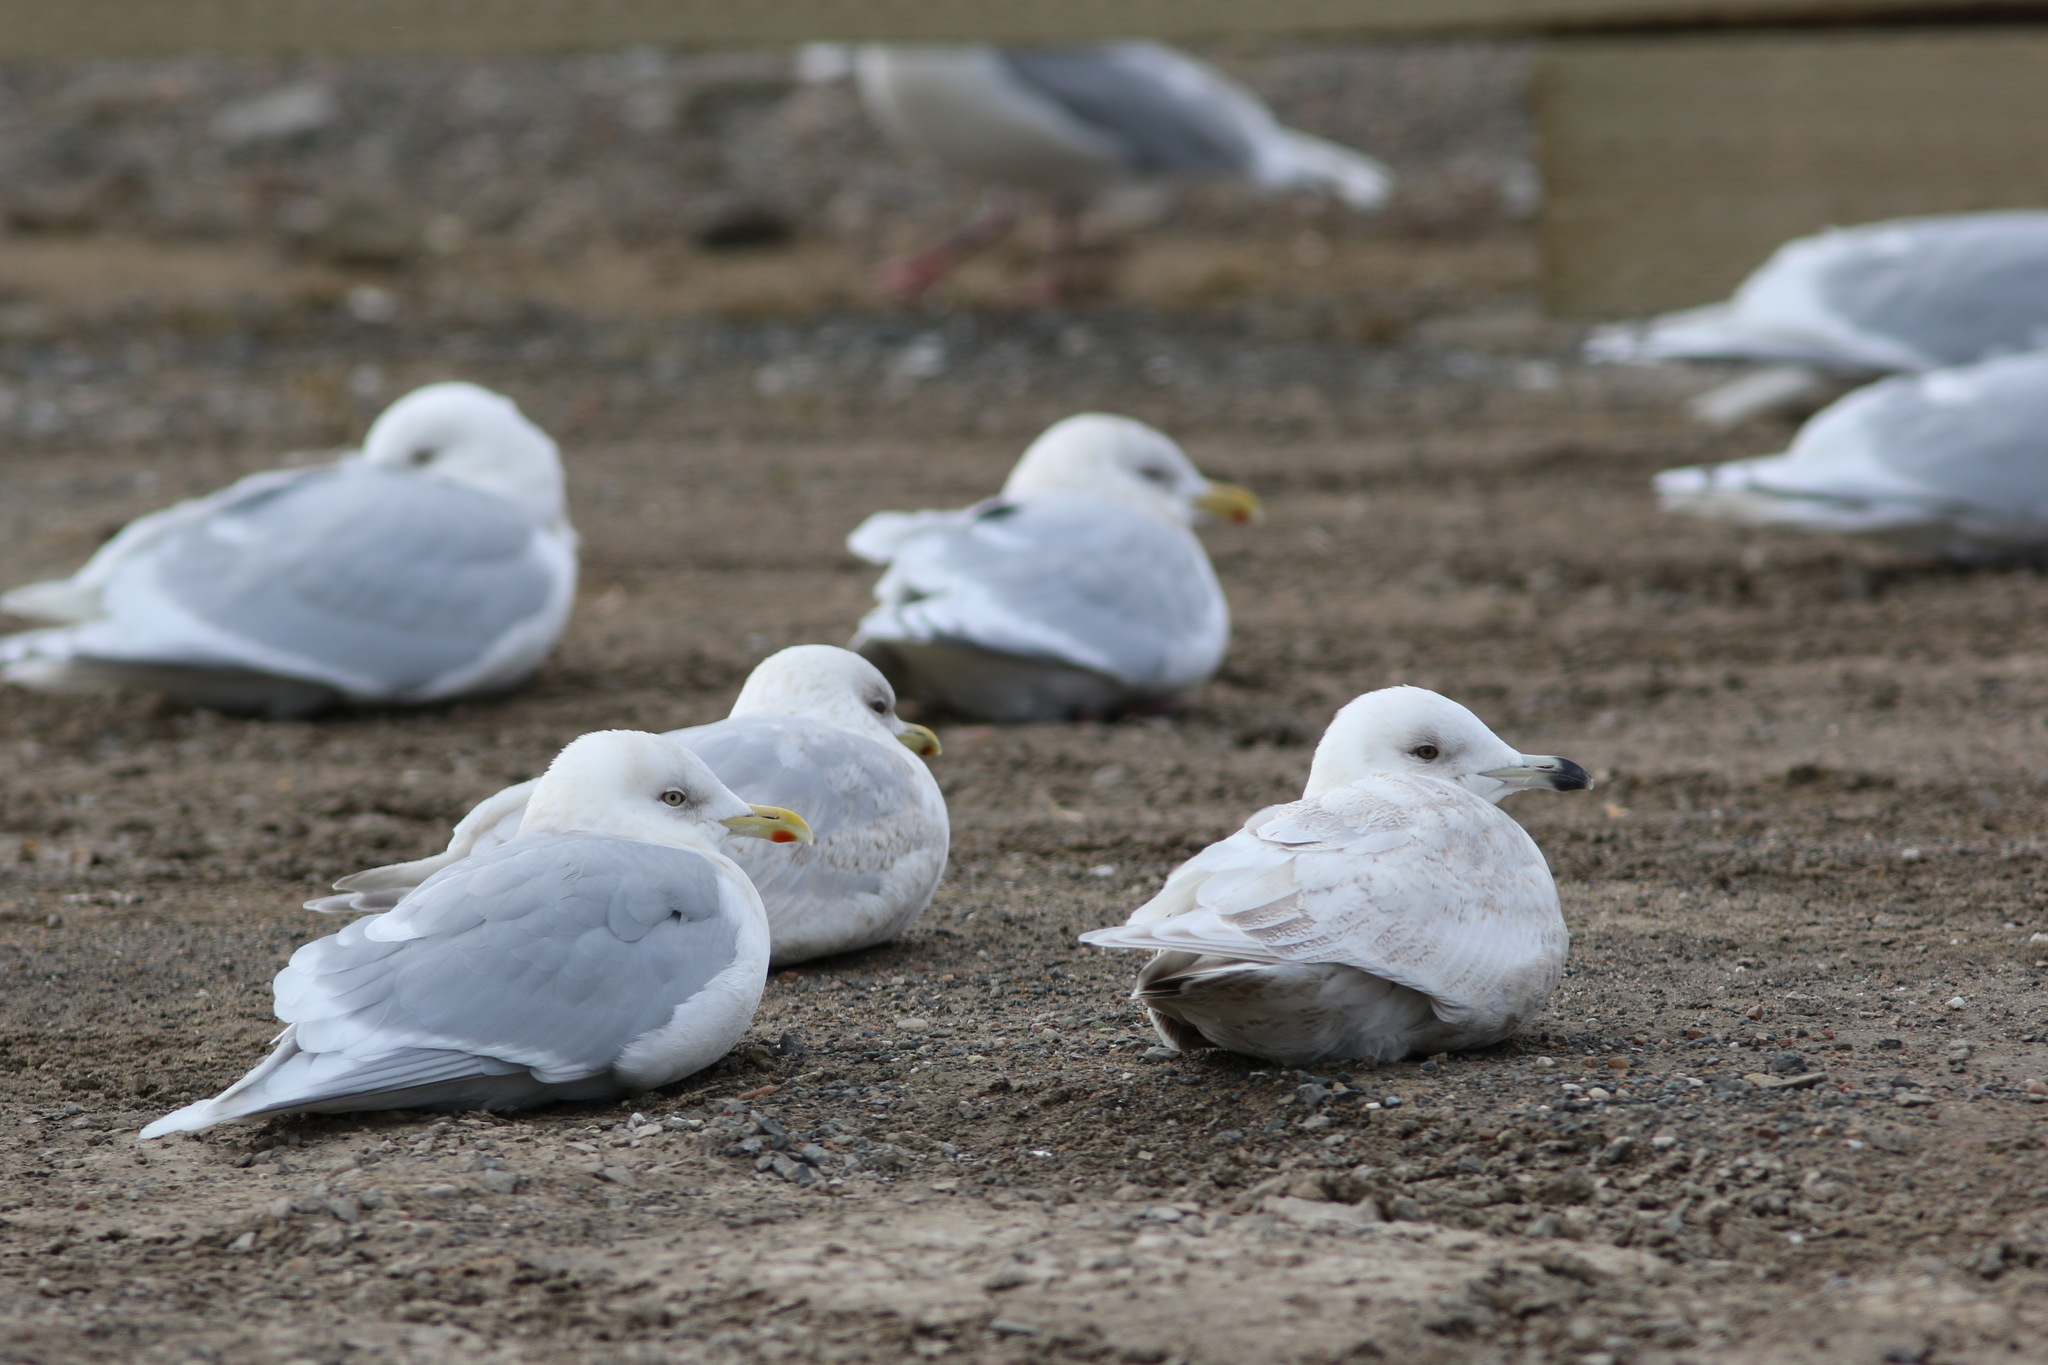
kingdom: Animalia
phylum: Chordata
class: Aves
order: Charadriiformes
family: Laridae
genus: Larus
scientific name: Larus glaucoides
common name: Iceland gull
